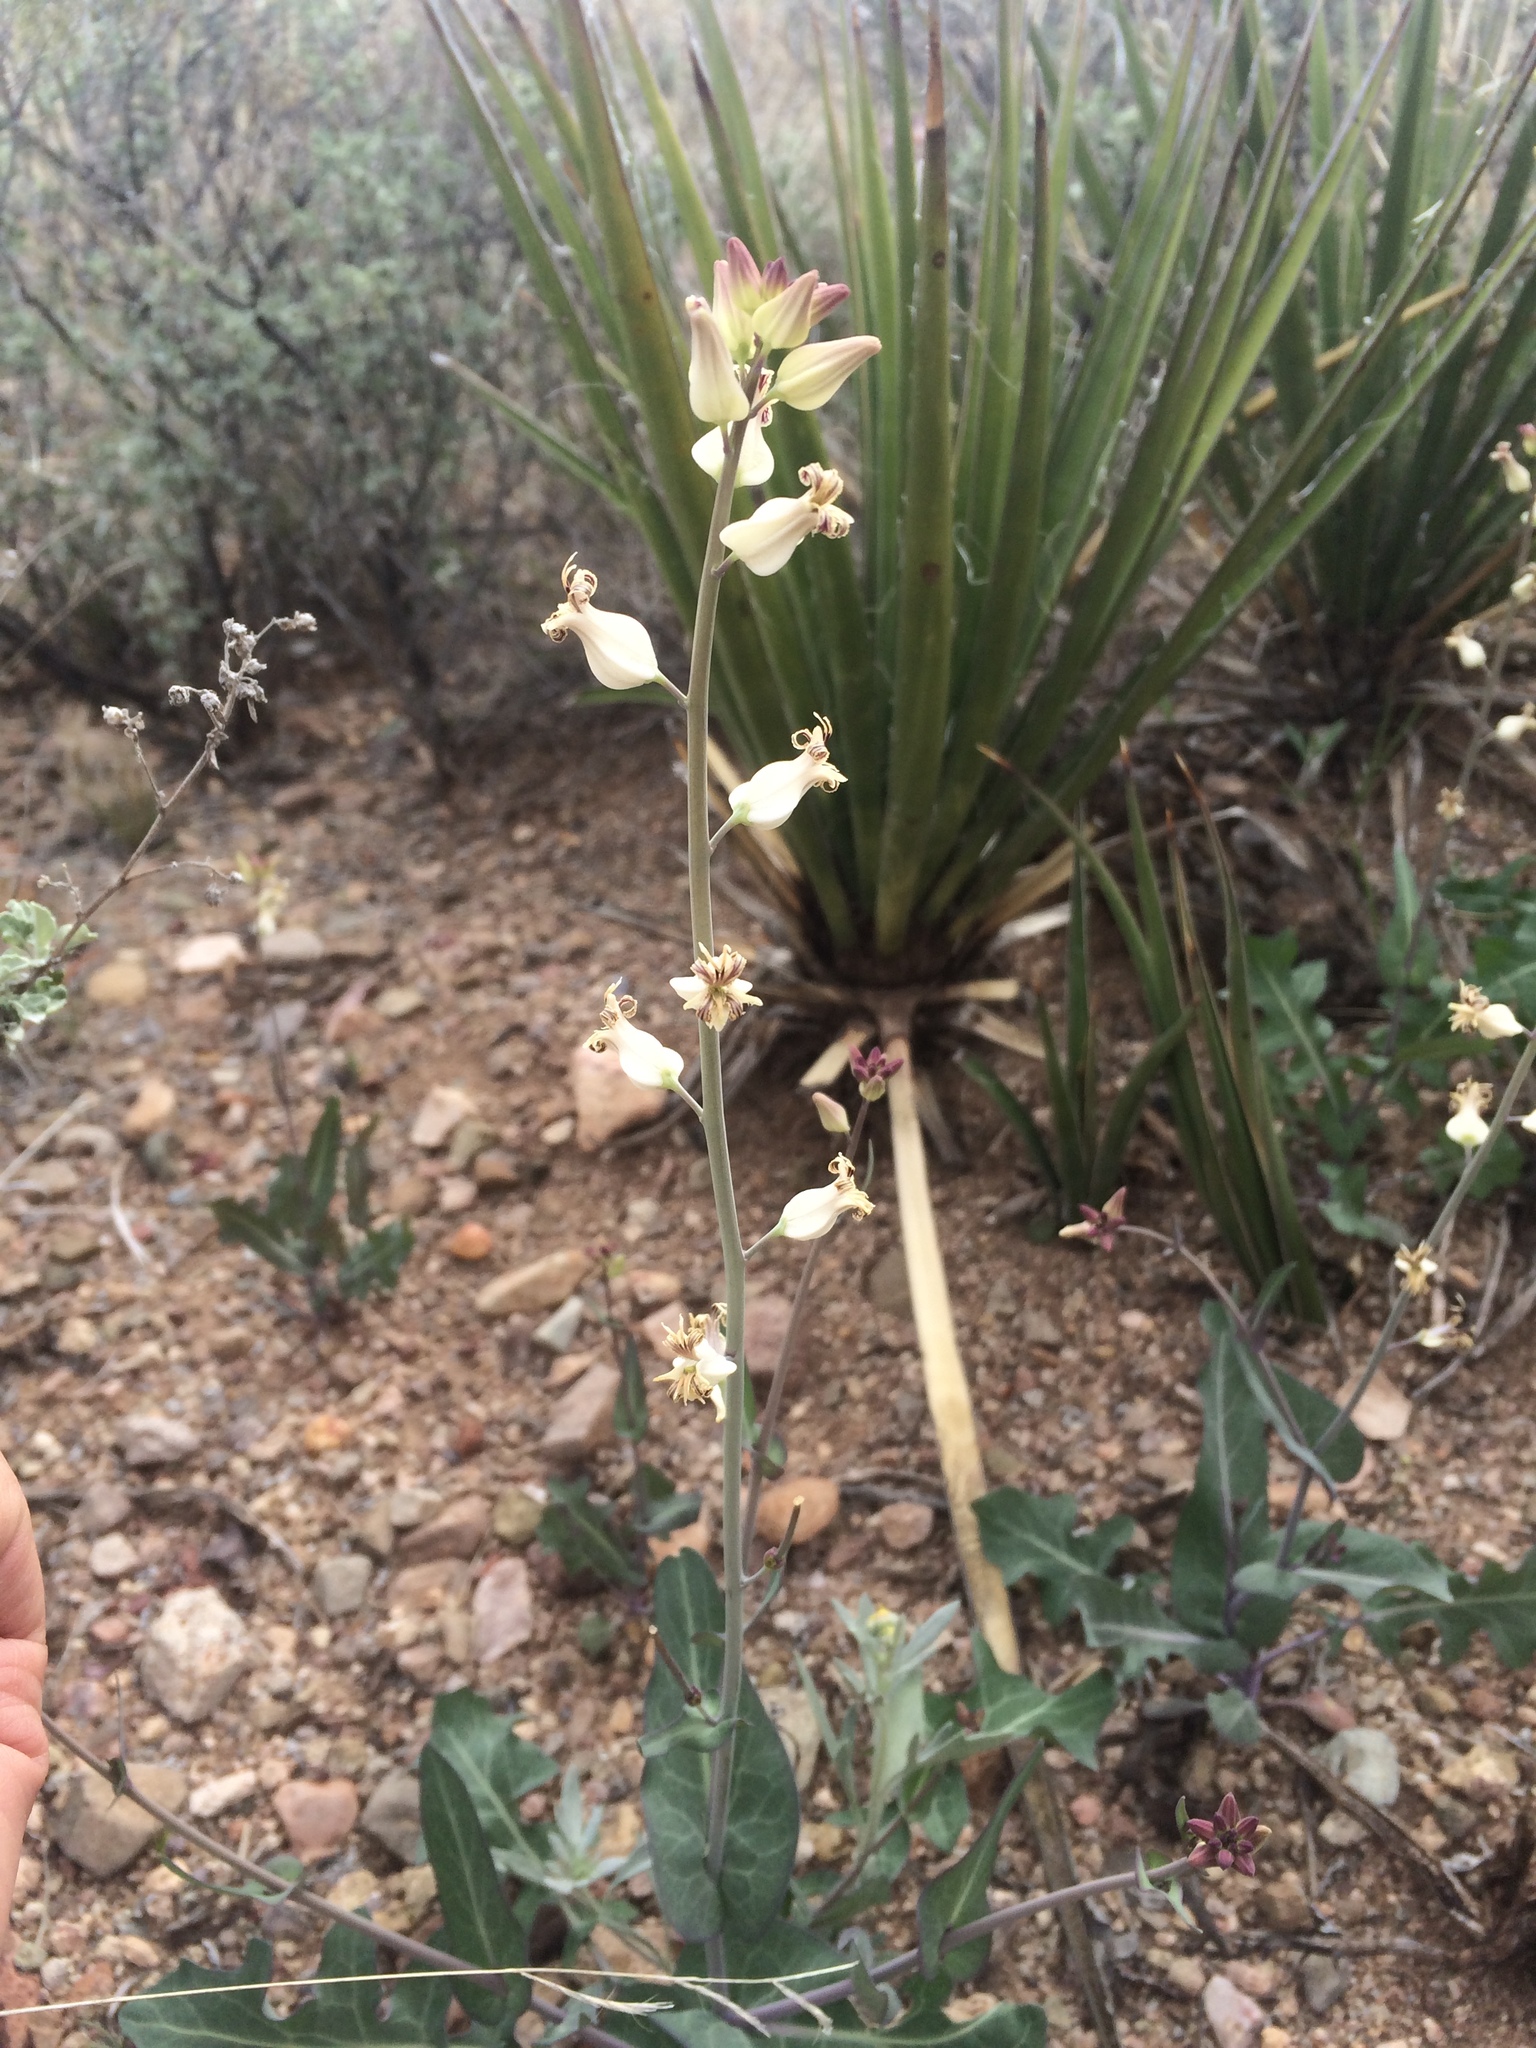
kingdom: Plantae
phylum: Tracheophyta
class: Magnoliopsida
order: Brassicales
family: Brassicaceae
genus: Streptanthus
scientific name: Streptanthus carinatus
